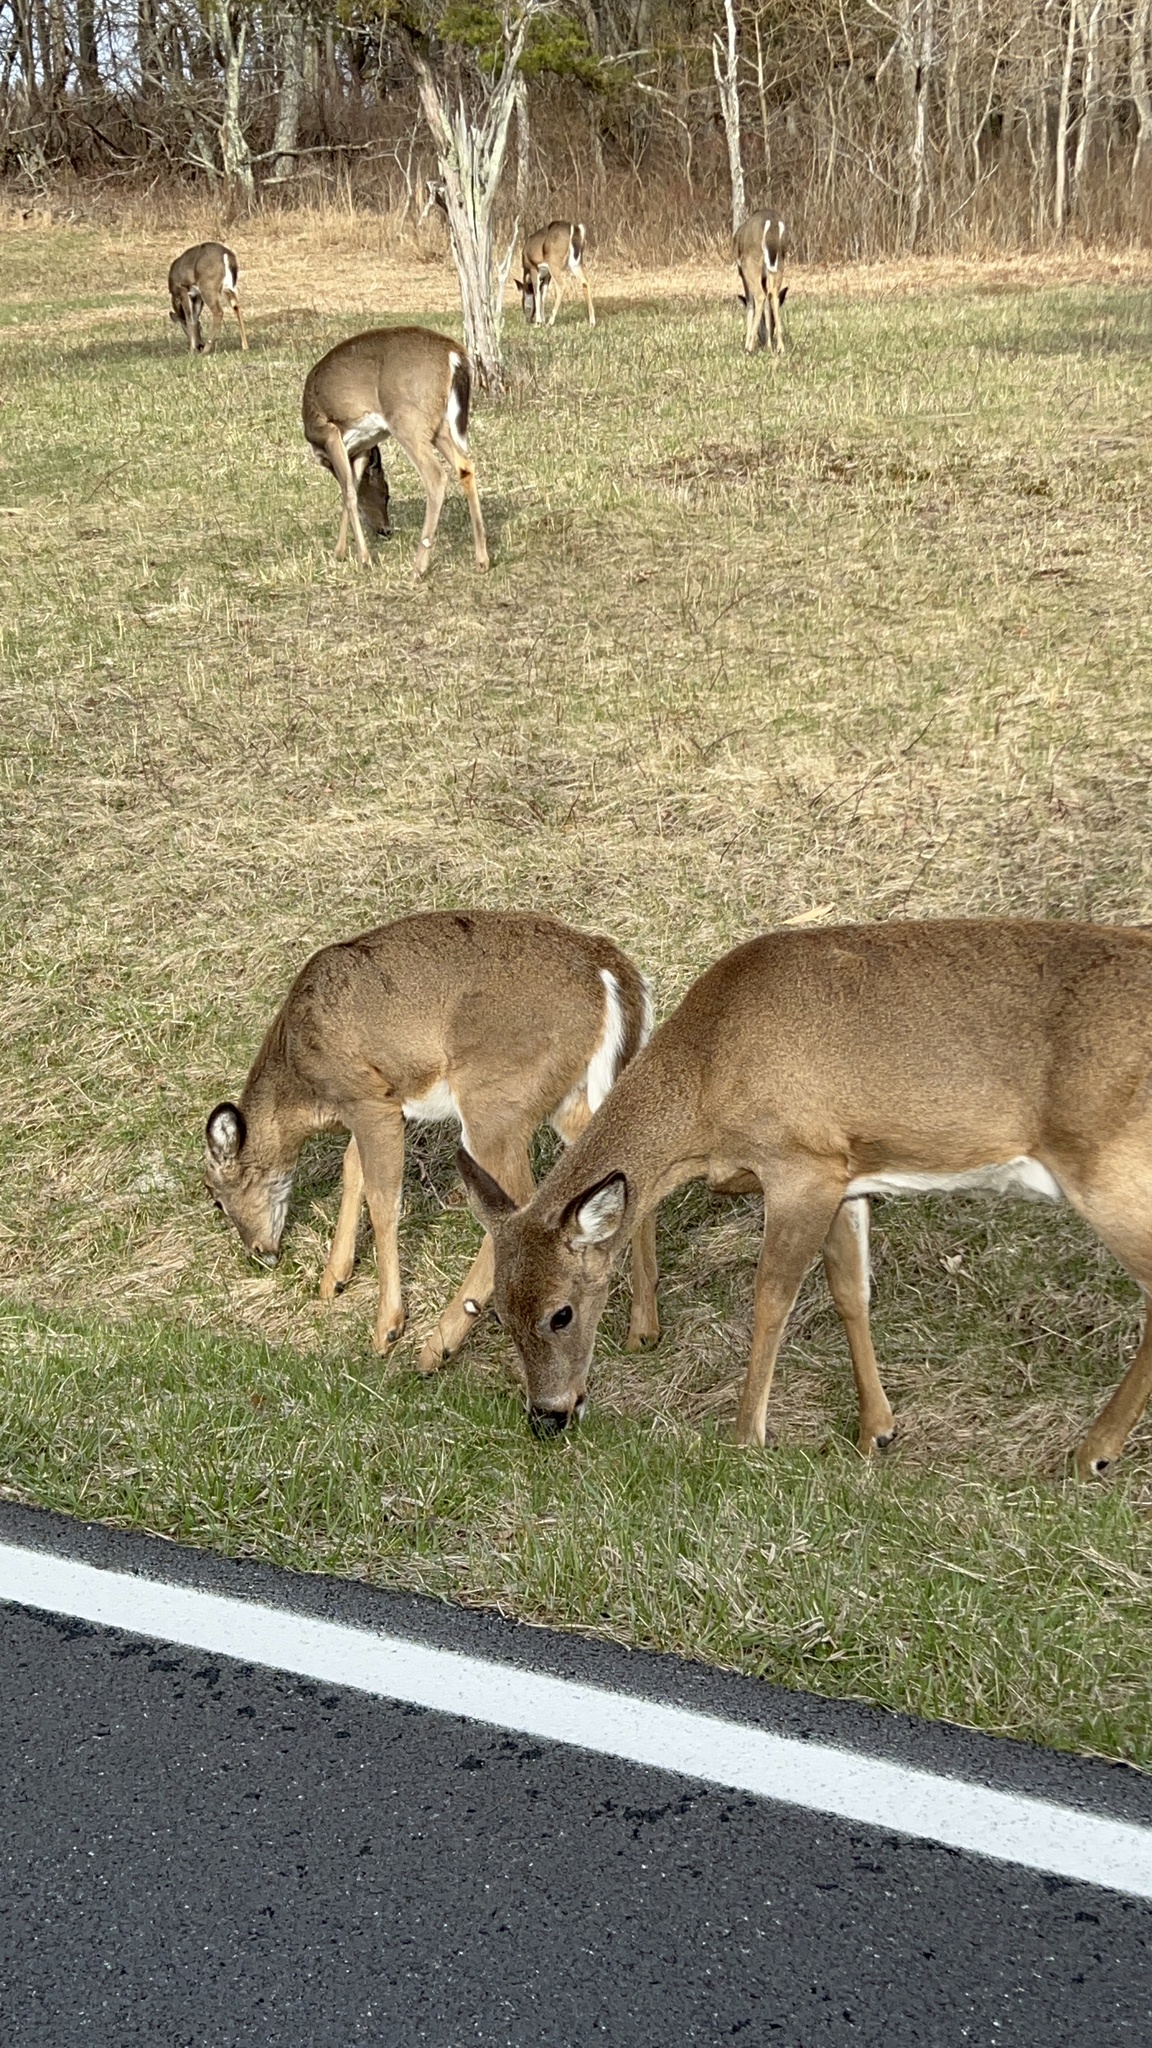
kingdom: Animalia
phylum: Chordata
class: Mammalia
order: Artiodactyla
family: Cervidae
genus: Odocoileus
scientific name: Odocoileus virginianus
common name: White-tailed deer
